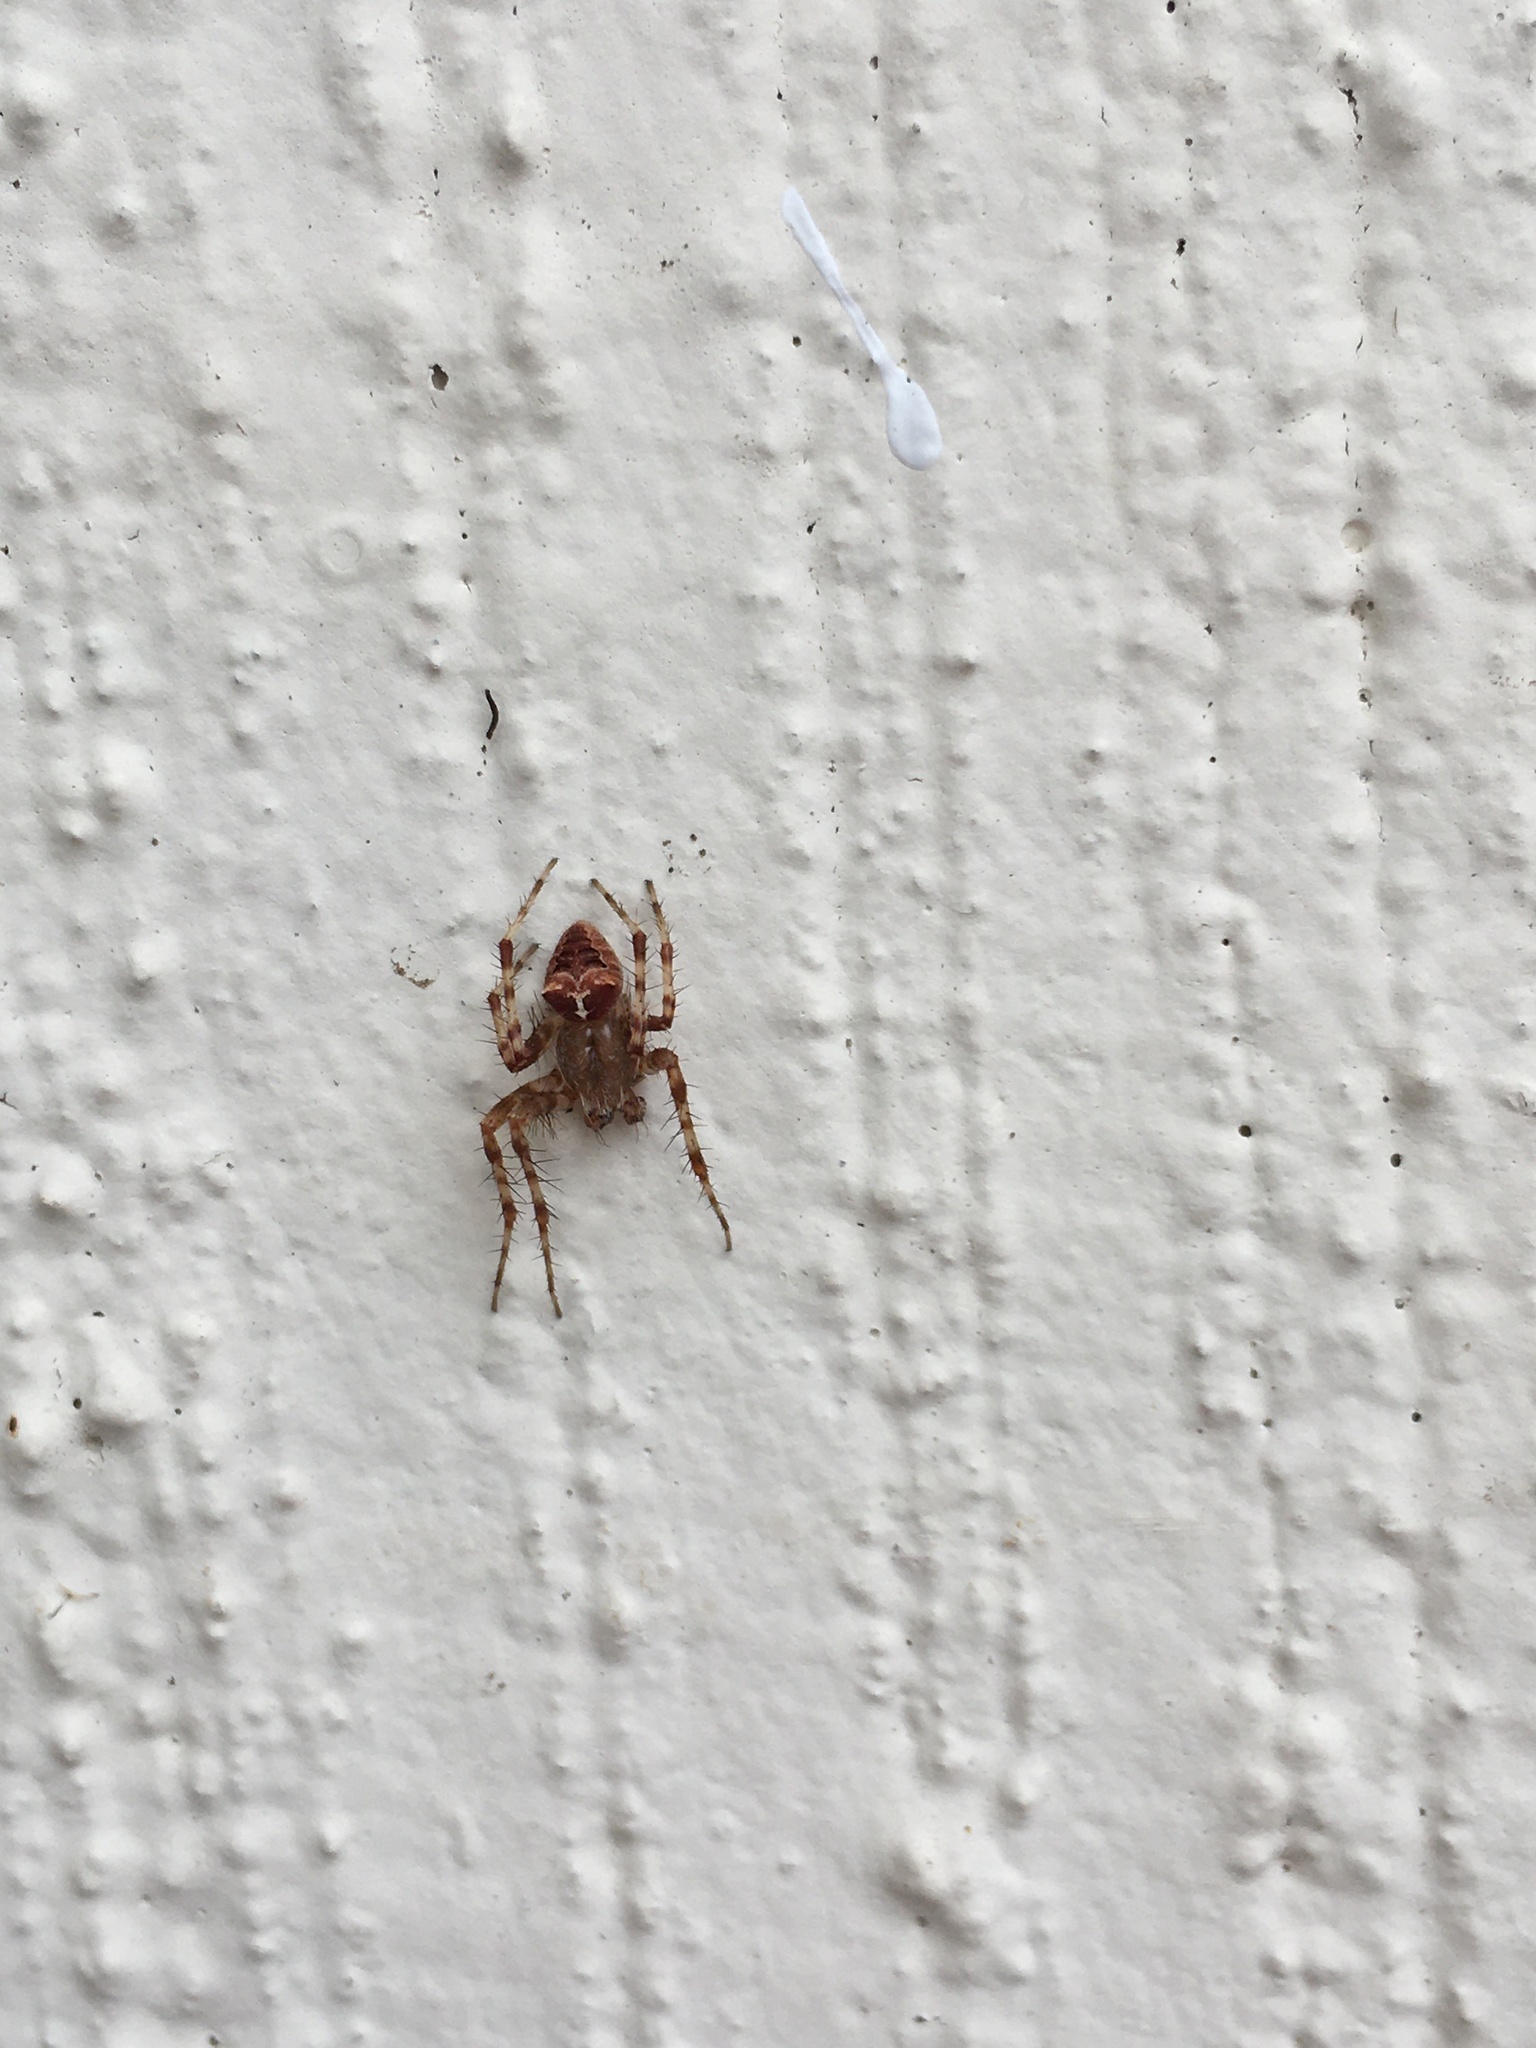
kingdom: Animalia
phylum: Arthropoda
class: Arachnida
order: Araneae
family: Araneidae
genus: Araneus
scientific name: Araneus gemmoides
